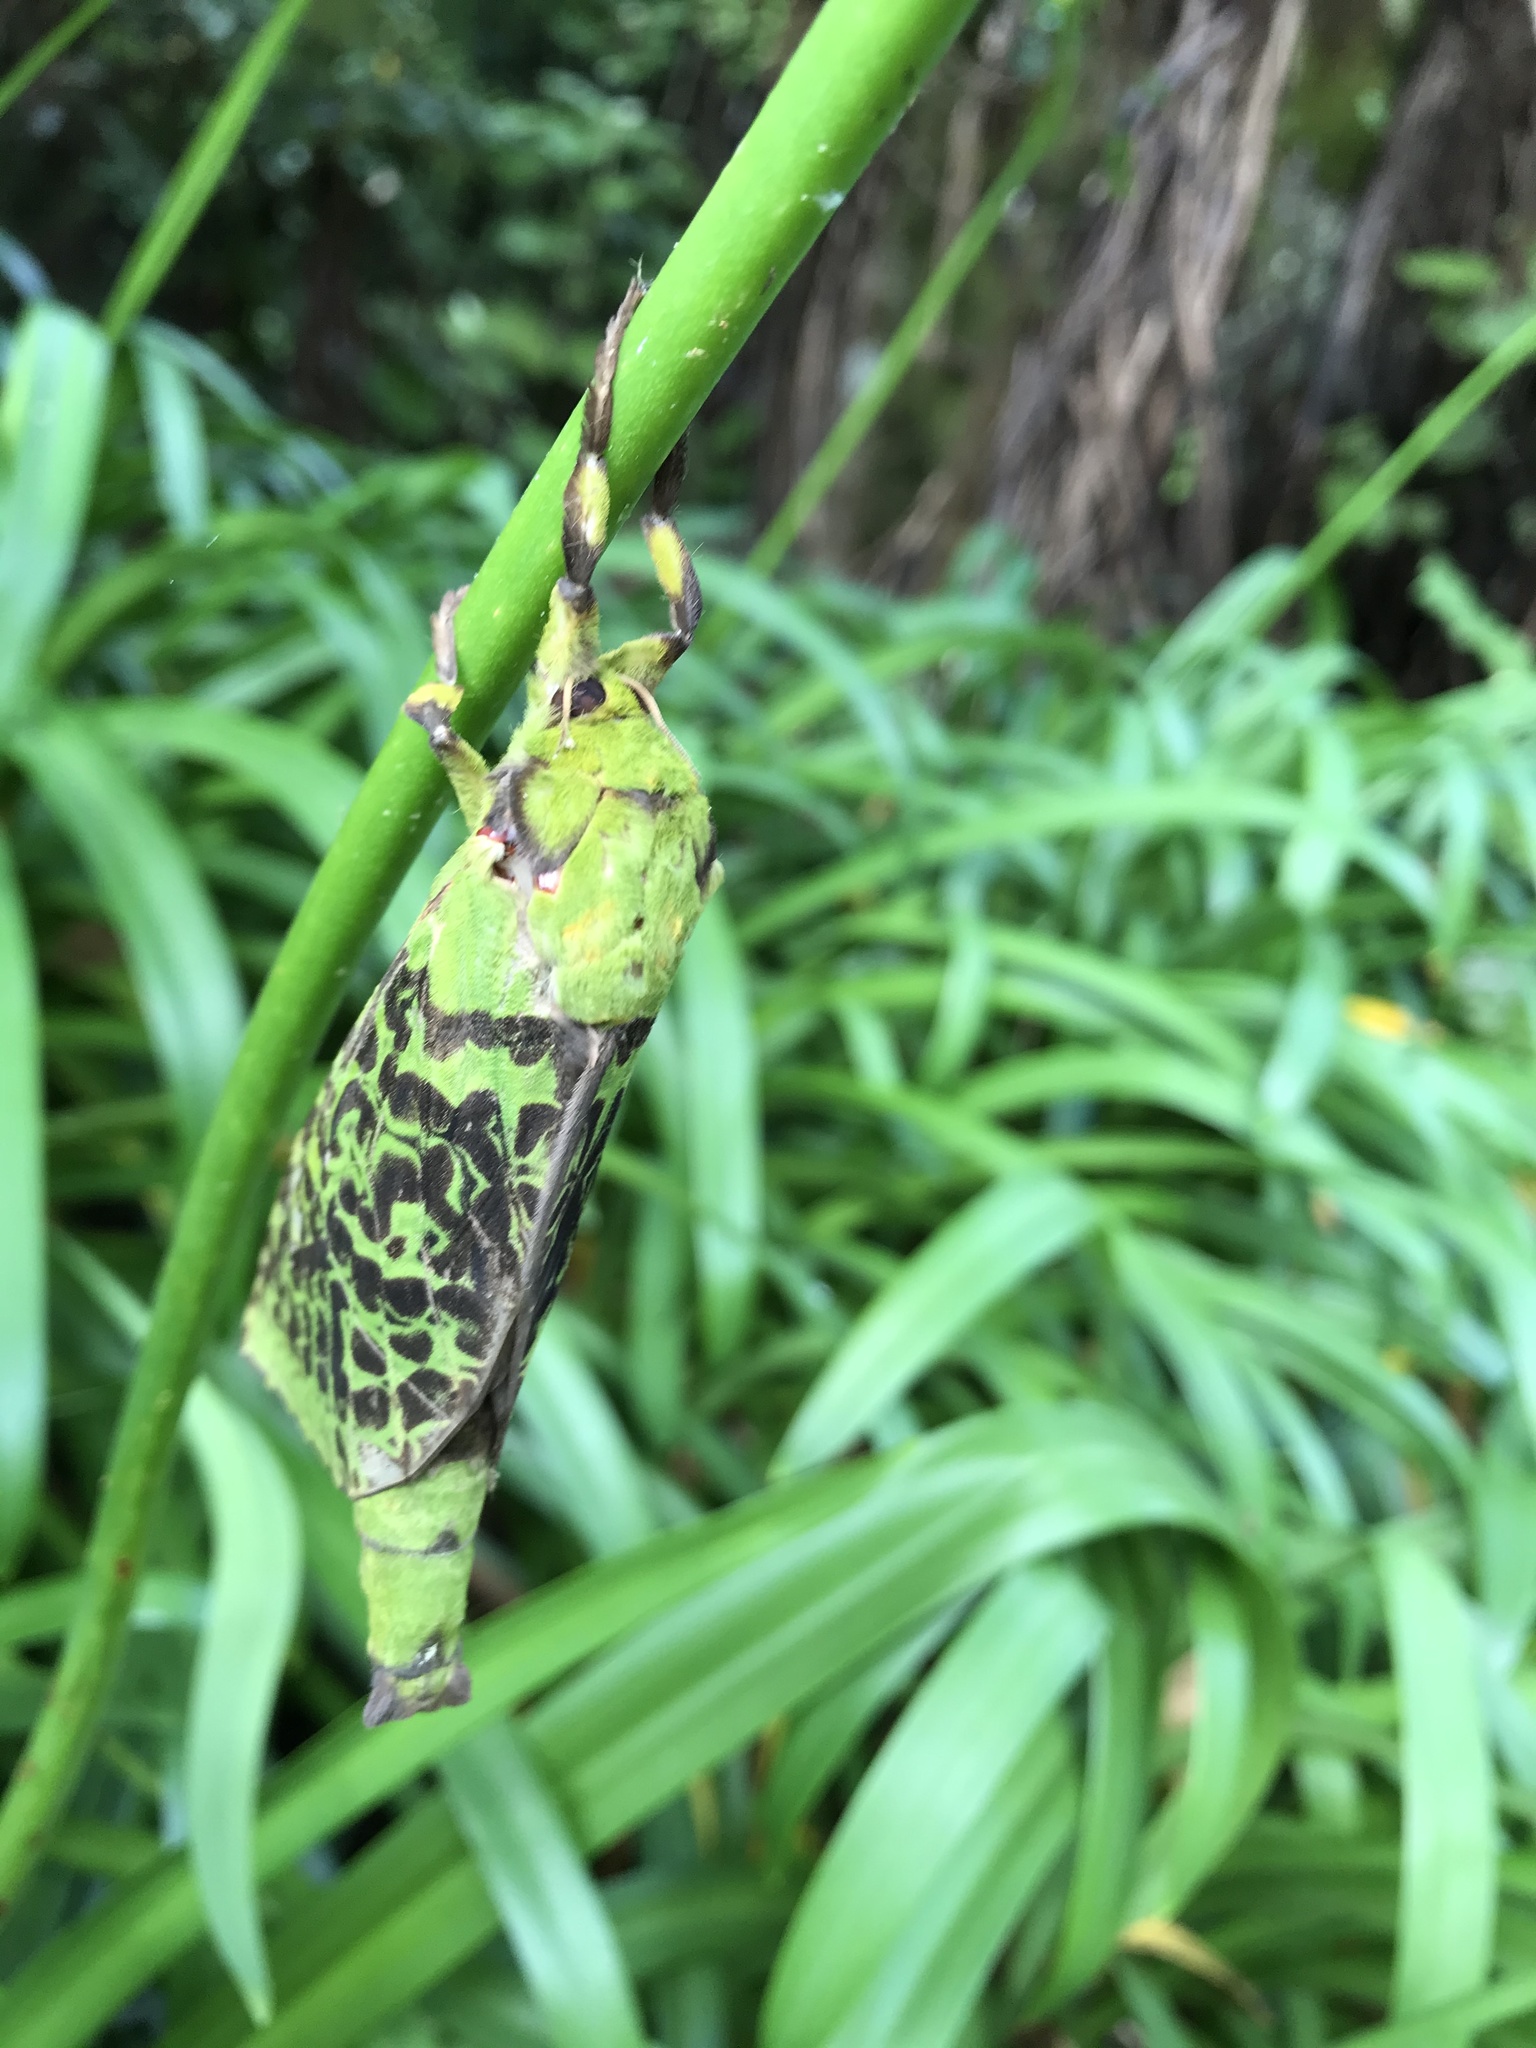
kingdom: Animalia
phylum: Arthropoda
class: Insecta
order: Lepidoptera
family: Hepialidae
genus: Aenetus
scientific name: Aenetus virescens
